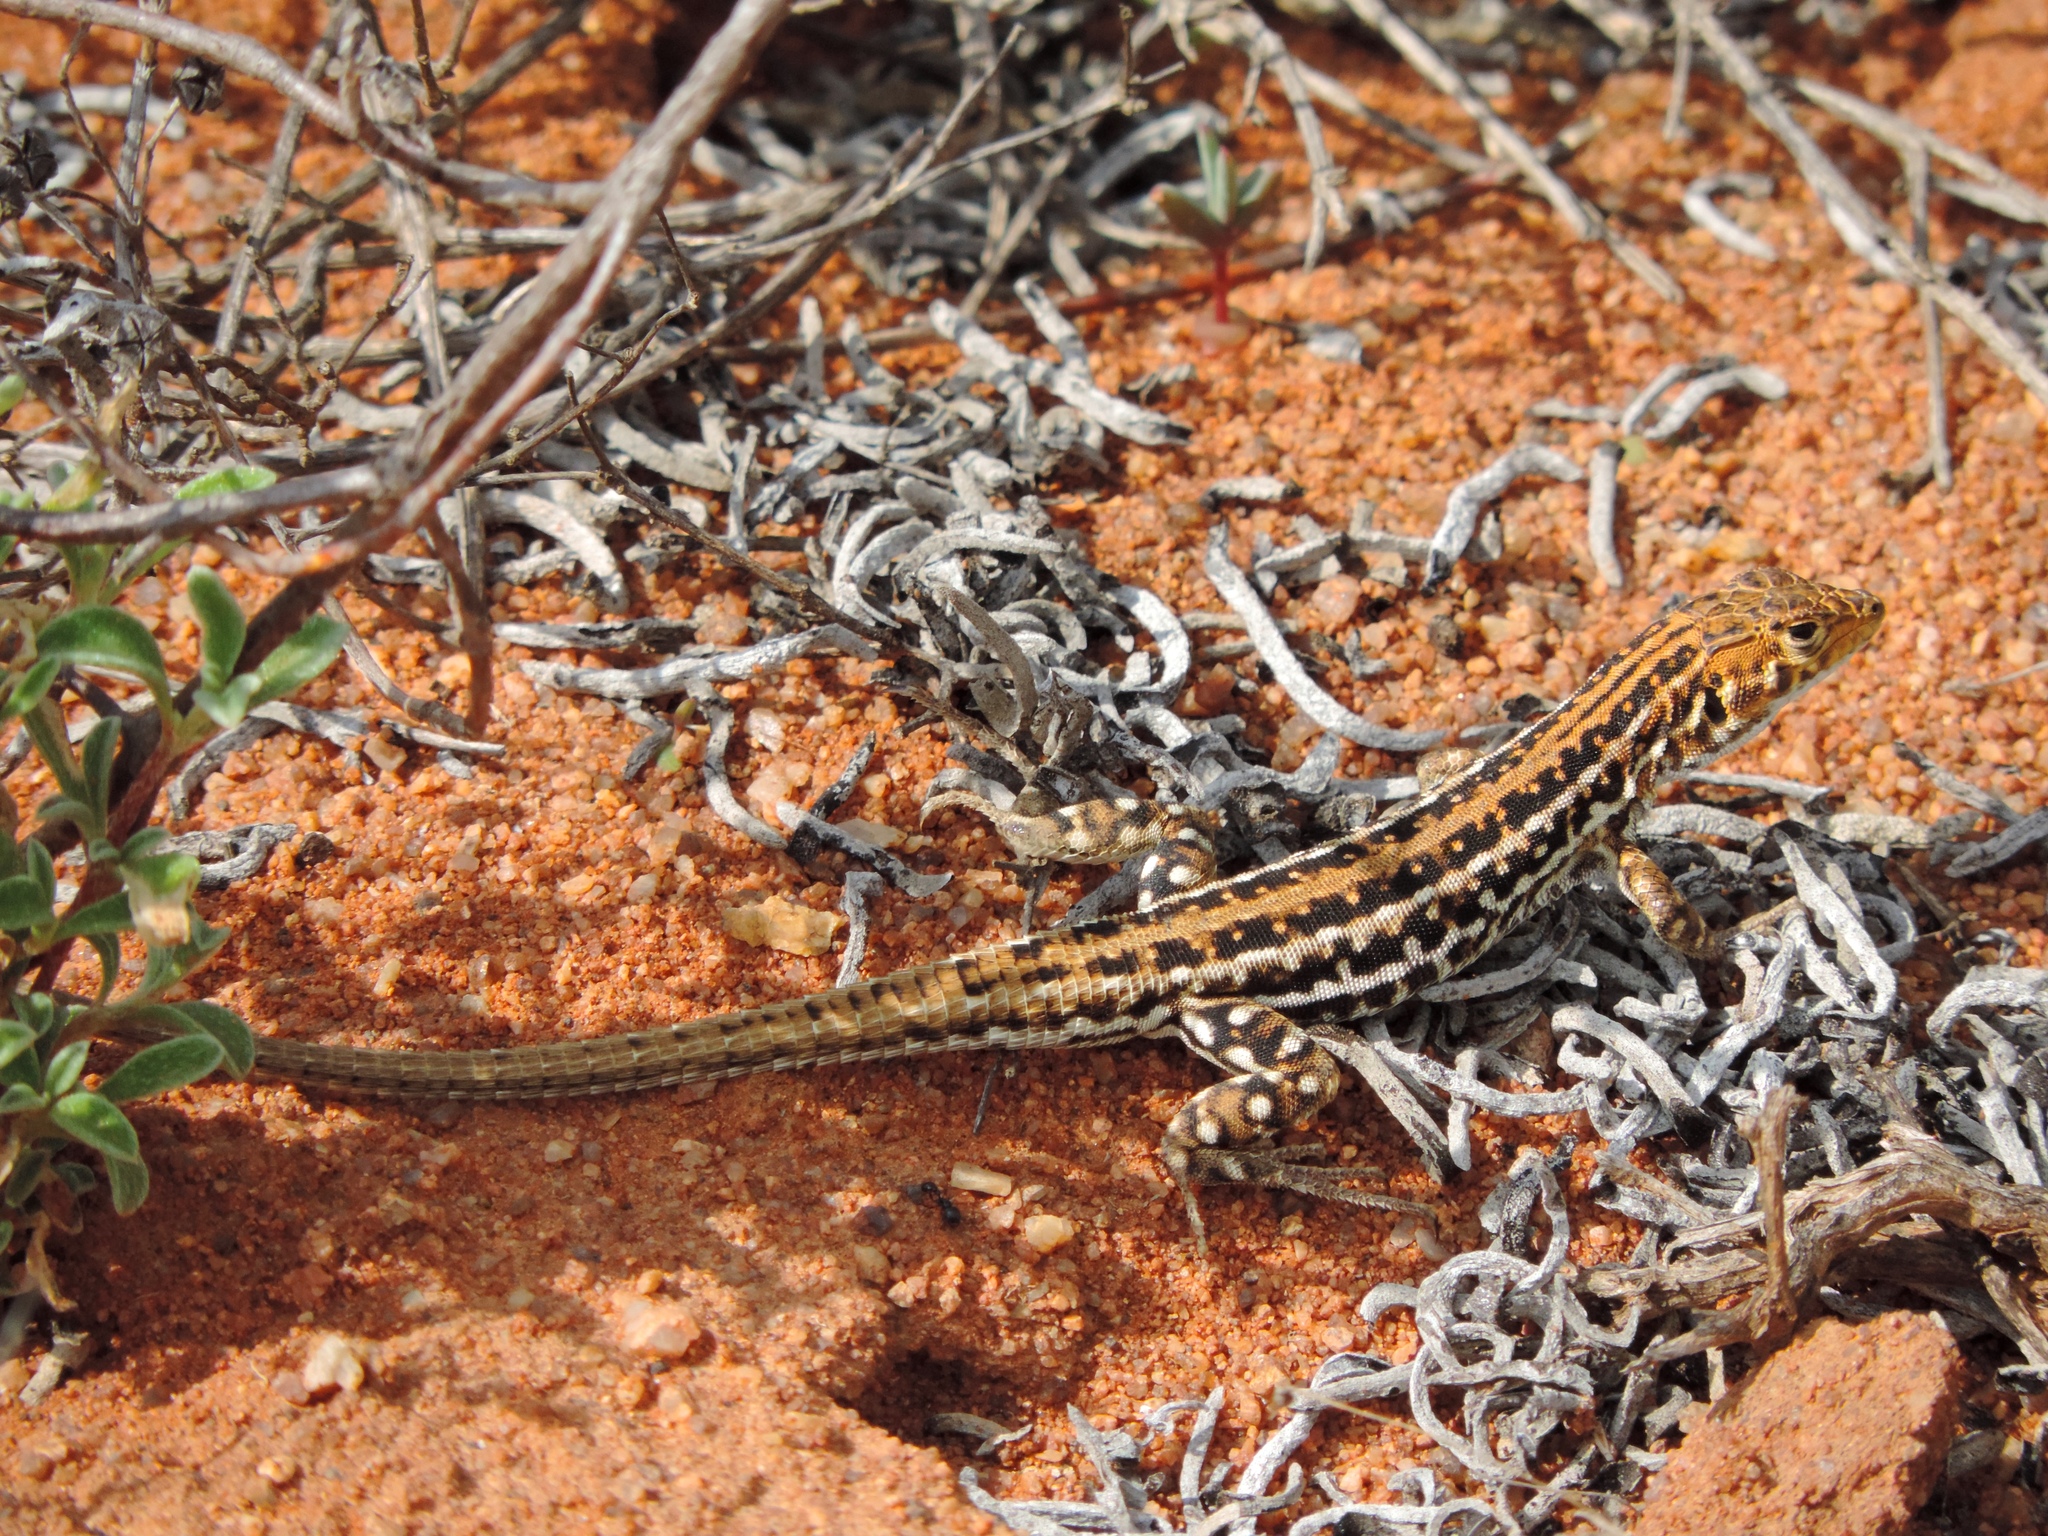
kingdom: Animalia
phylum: Chordata
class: Squamata
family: Lacertidae
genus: Meroles
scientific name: Meroles knoxii
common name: Knox's desert lizard
